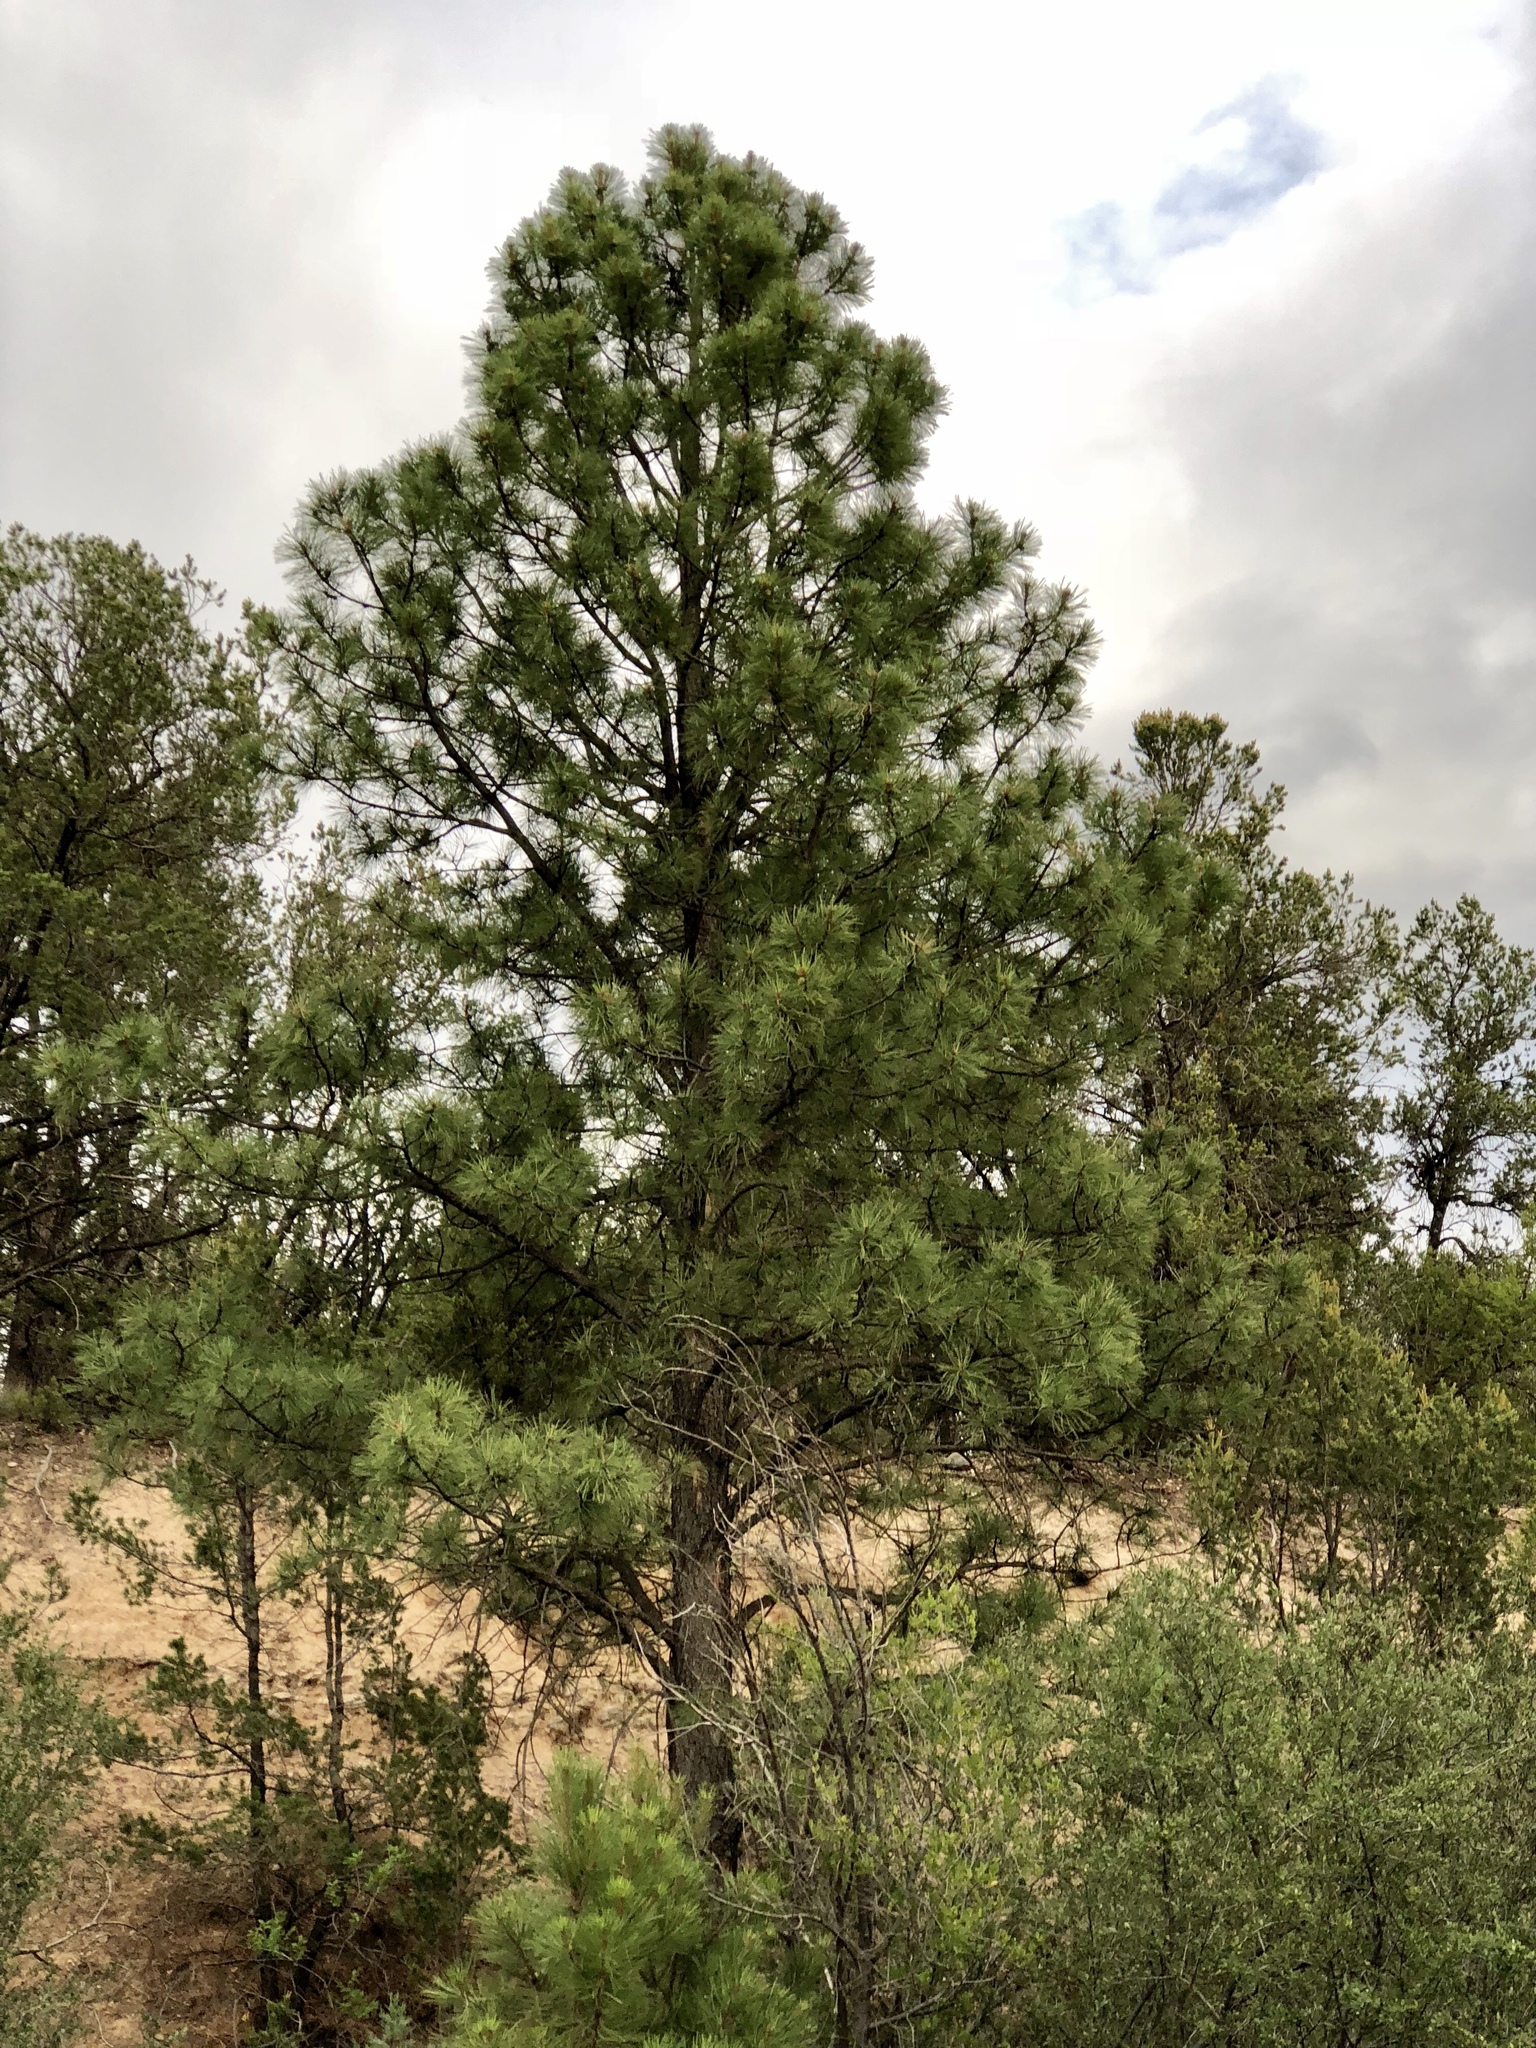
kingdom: Plantae
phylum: Tracheophyta
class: Pinopsida
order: Pinales
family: Pinaceae
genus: Pinus
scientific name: Pinus ponderosa
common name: Western yellow-pine
